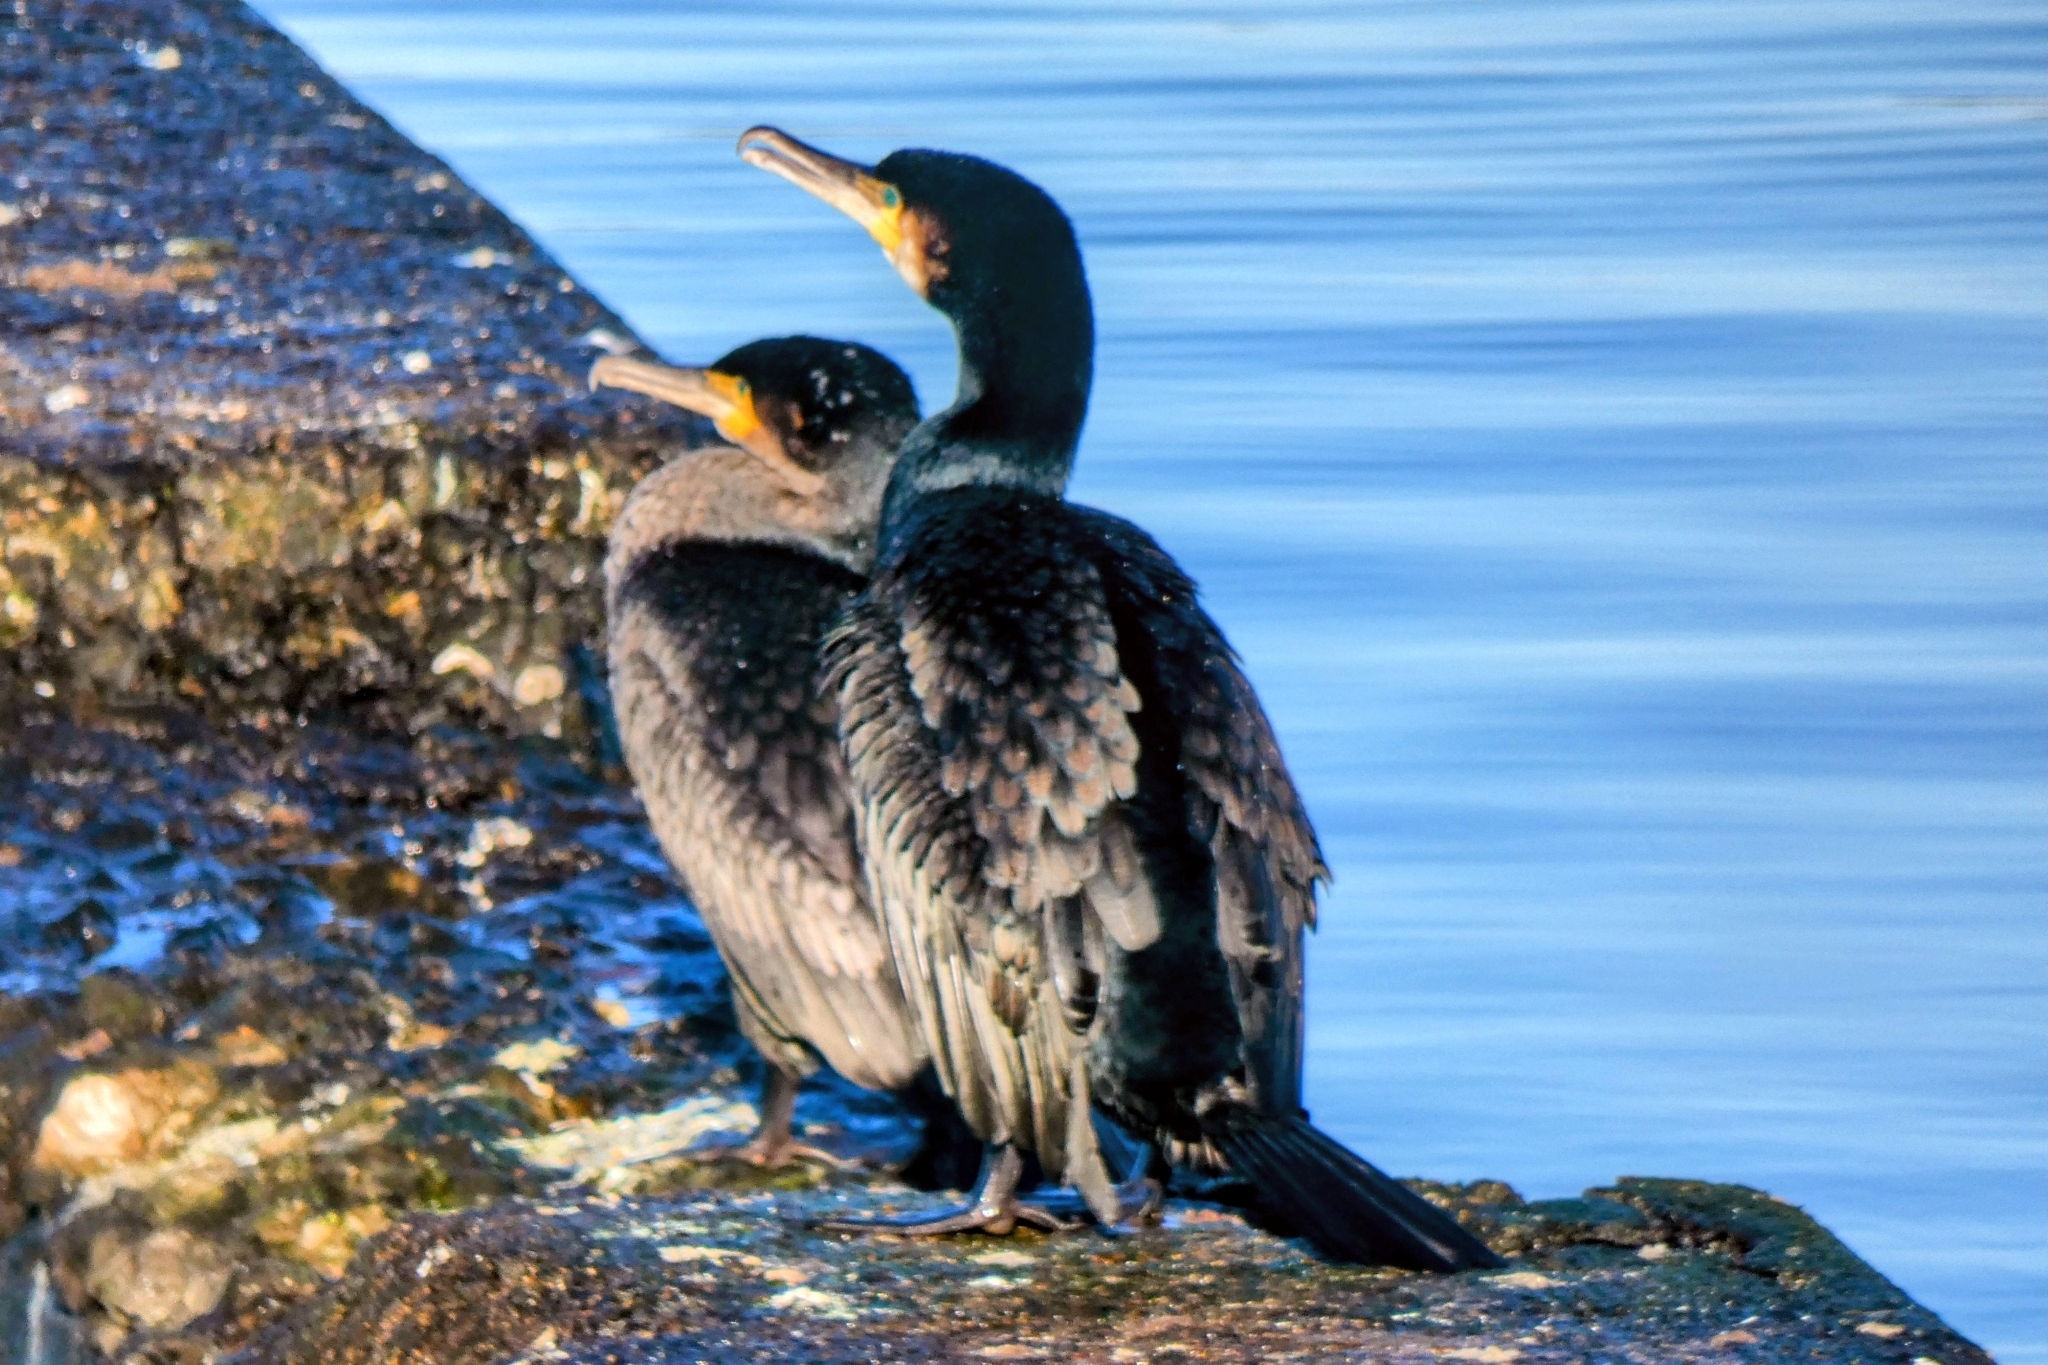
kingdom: Animalia
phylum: Chordata
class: Aves
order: Suliformes
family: Phalacrocoracidae
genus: Phalacrocorax
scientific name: Phalacrocorax carbo
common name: Great cormorant
